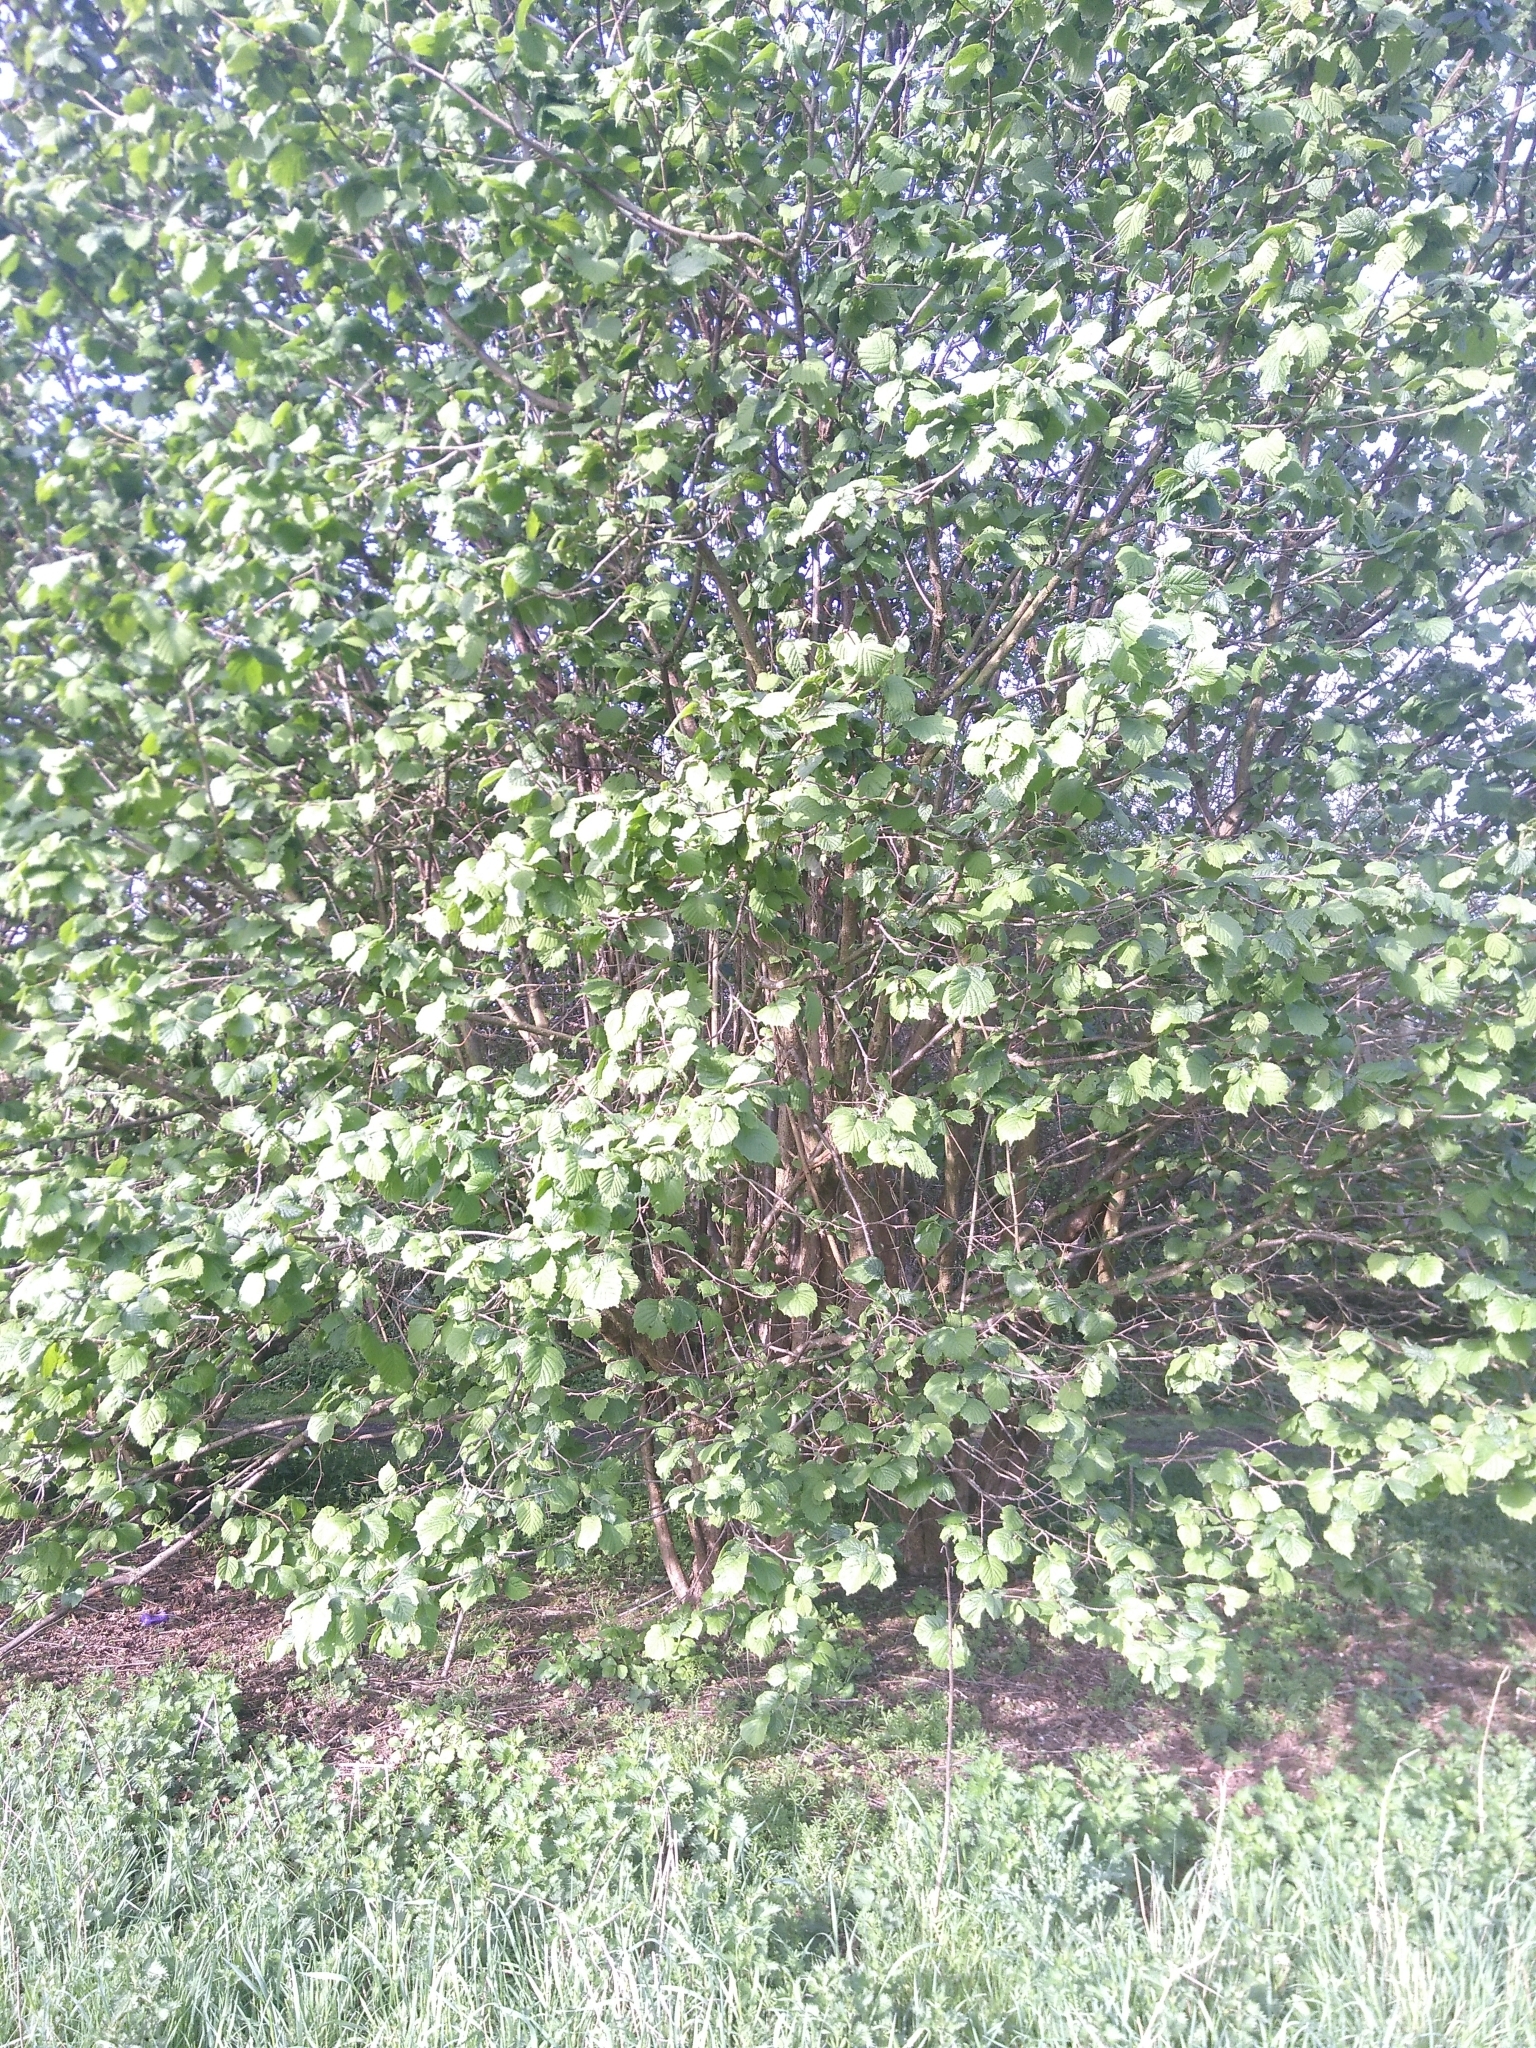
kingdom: Plantae
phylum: Tracheophyta
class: Magnoliopsida
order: Fagales
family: Betulaceae
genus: Corylus
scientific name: Corylus avellana
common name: European hazel
